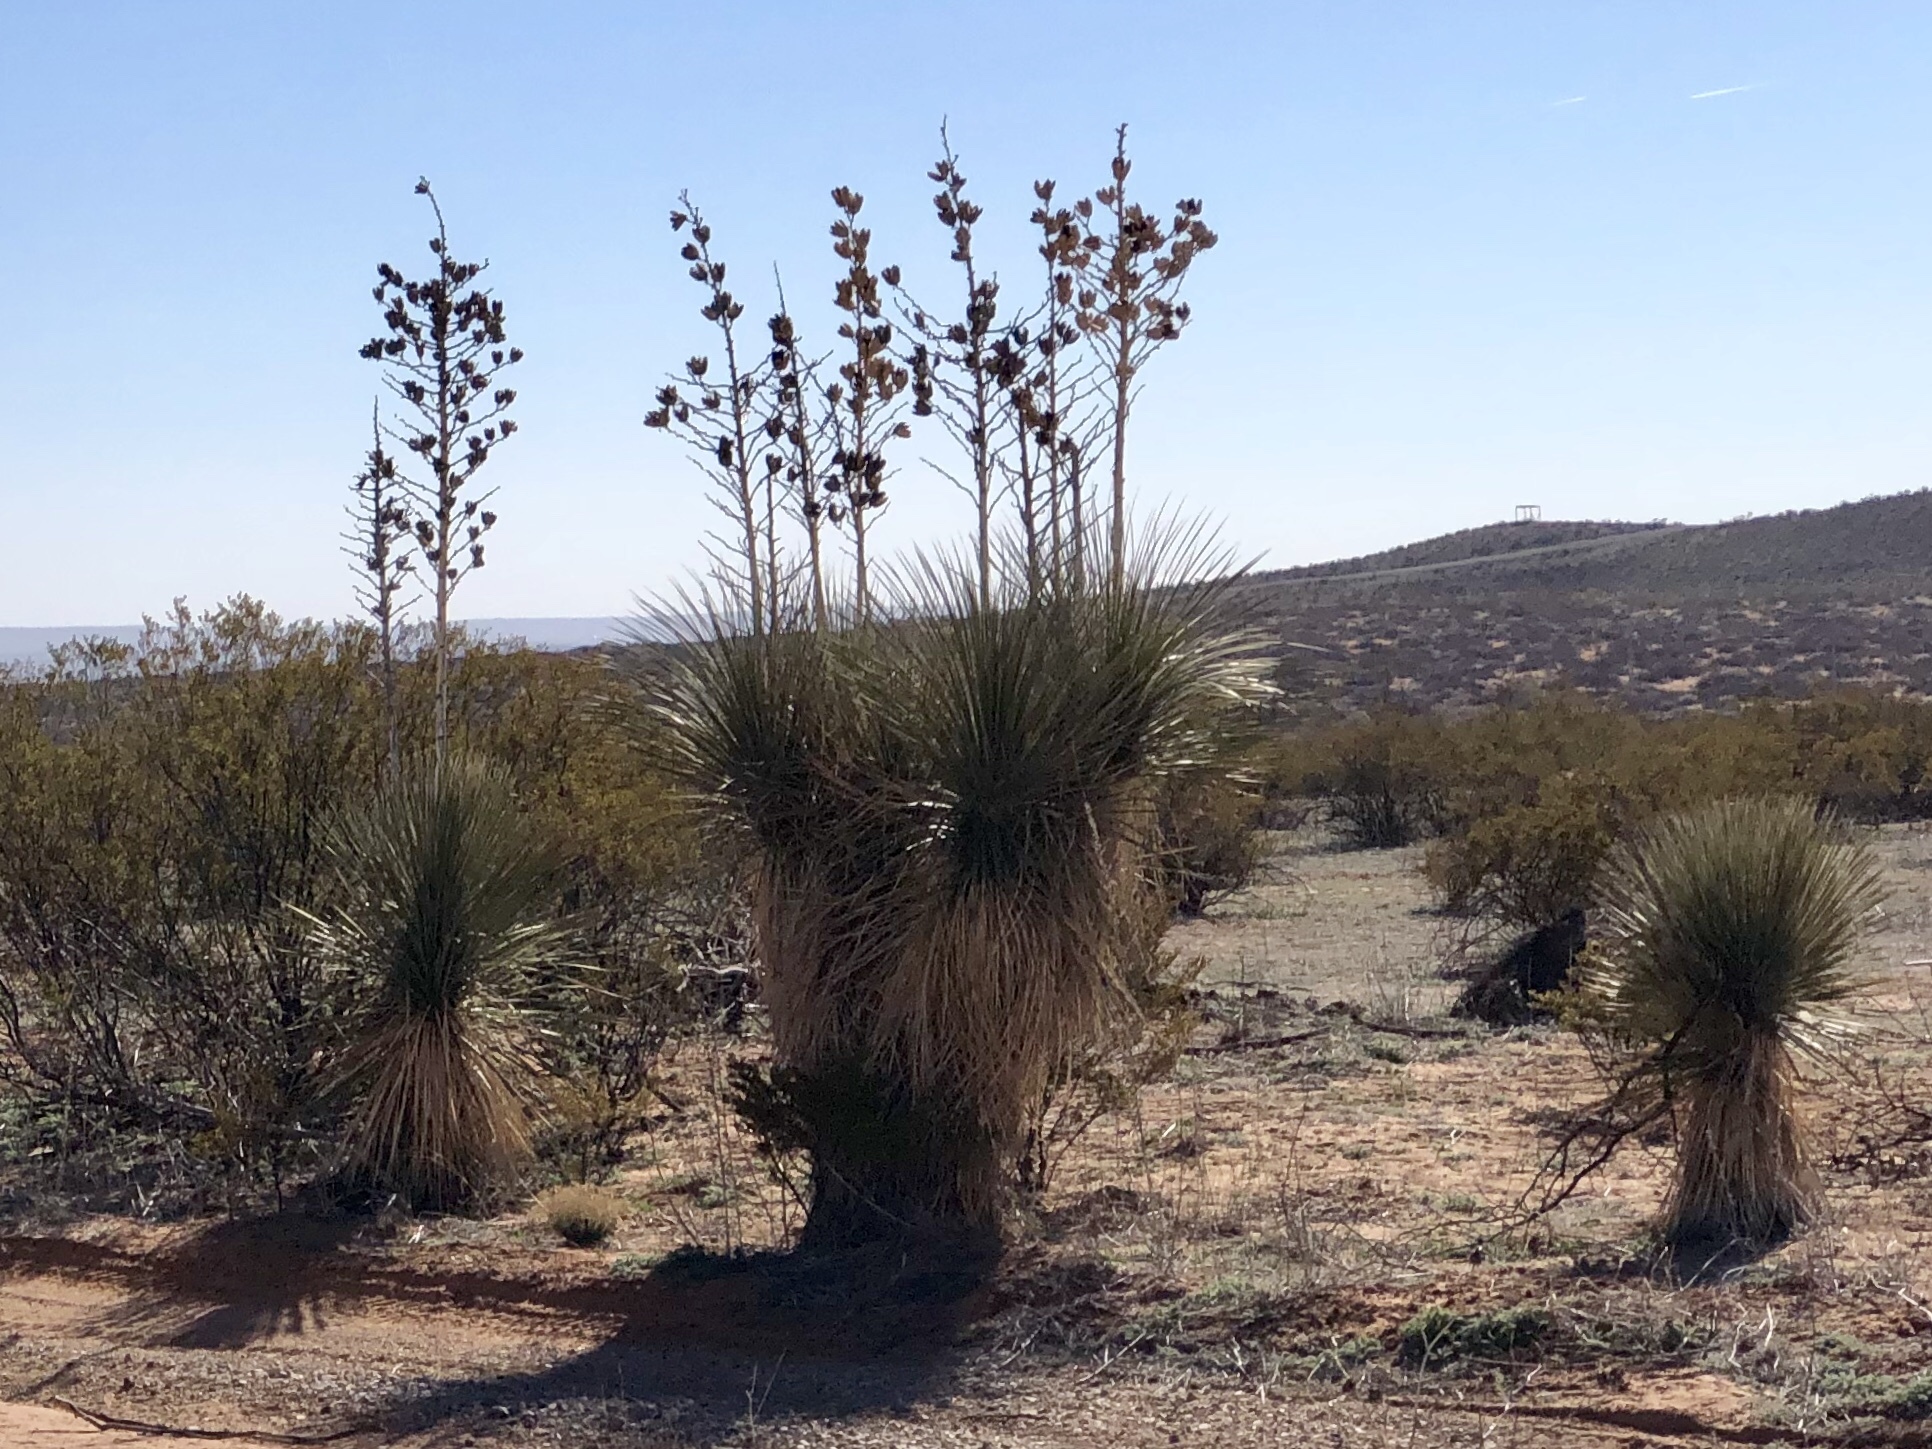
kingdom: Plantae
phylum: Tracheophyta
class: Liliopsida
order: Asparagales
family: Asparagaceae
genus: Yucca
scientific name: Yucca elata
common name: Palmella
